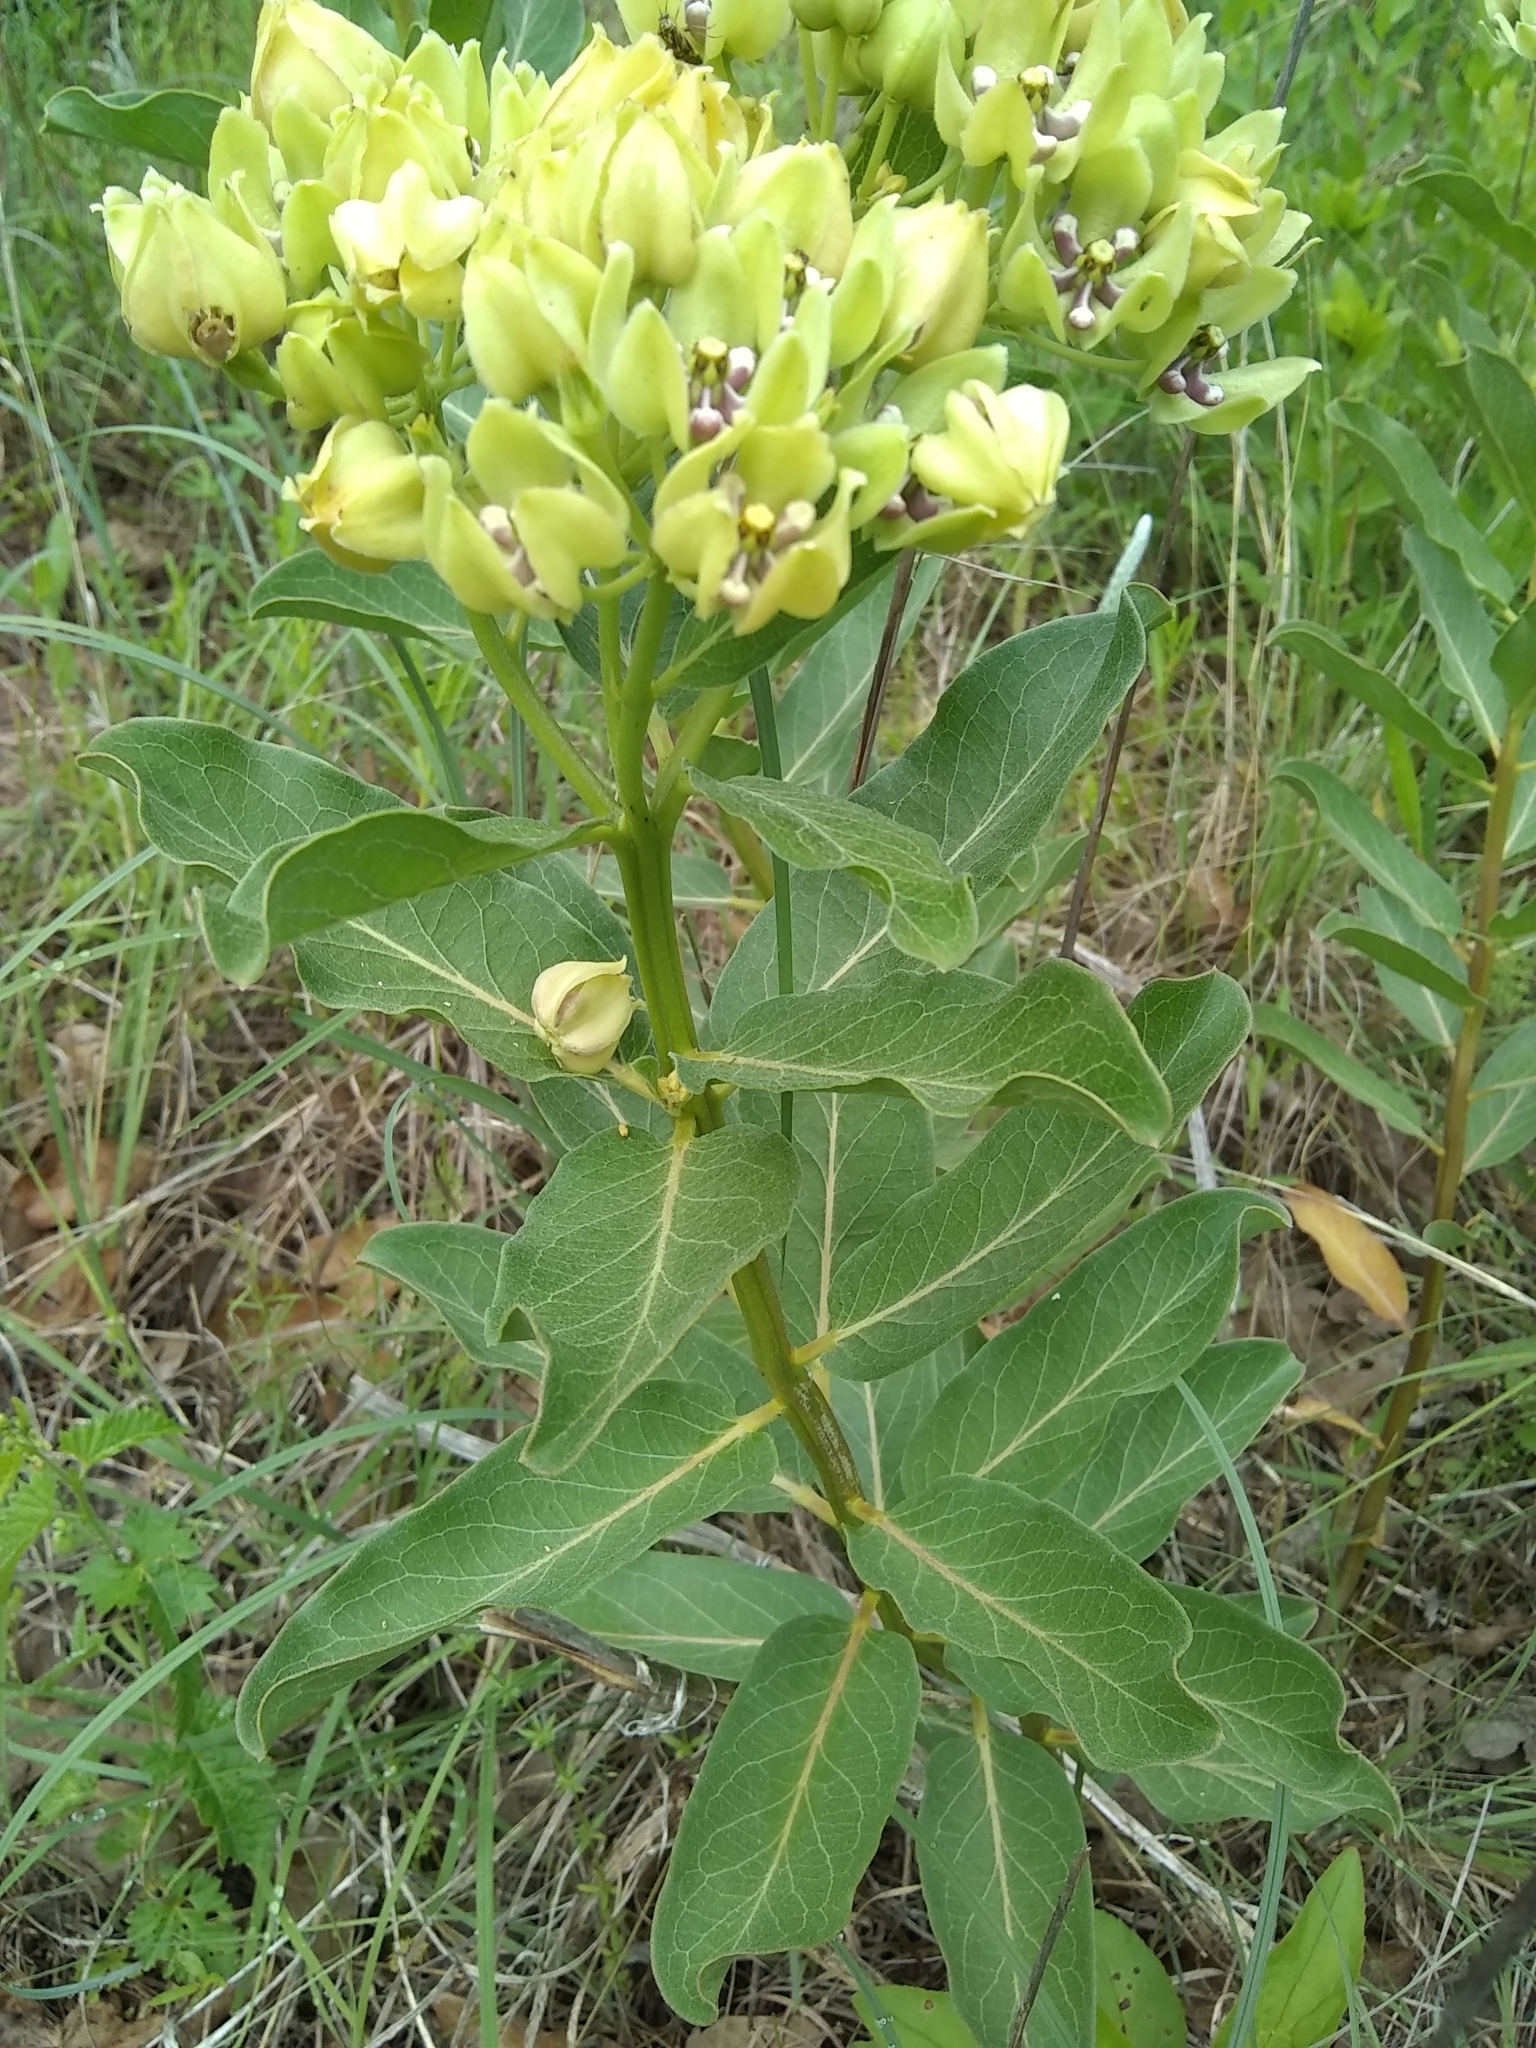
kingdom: Plantae
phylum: Tracheophyta
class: Magnoliopsida
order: Gentianales
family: Apocynaceae
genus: Asclepias
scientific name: Asclepias viridis
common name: Antelope-horns
